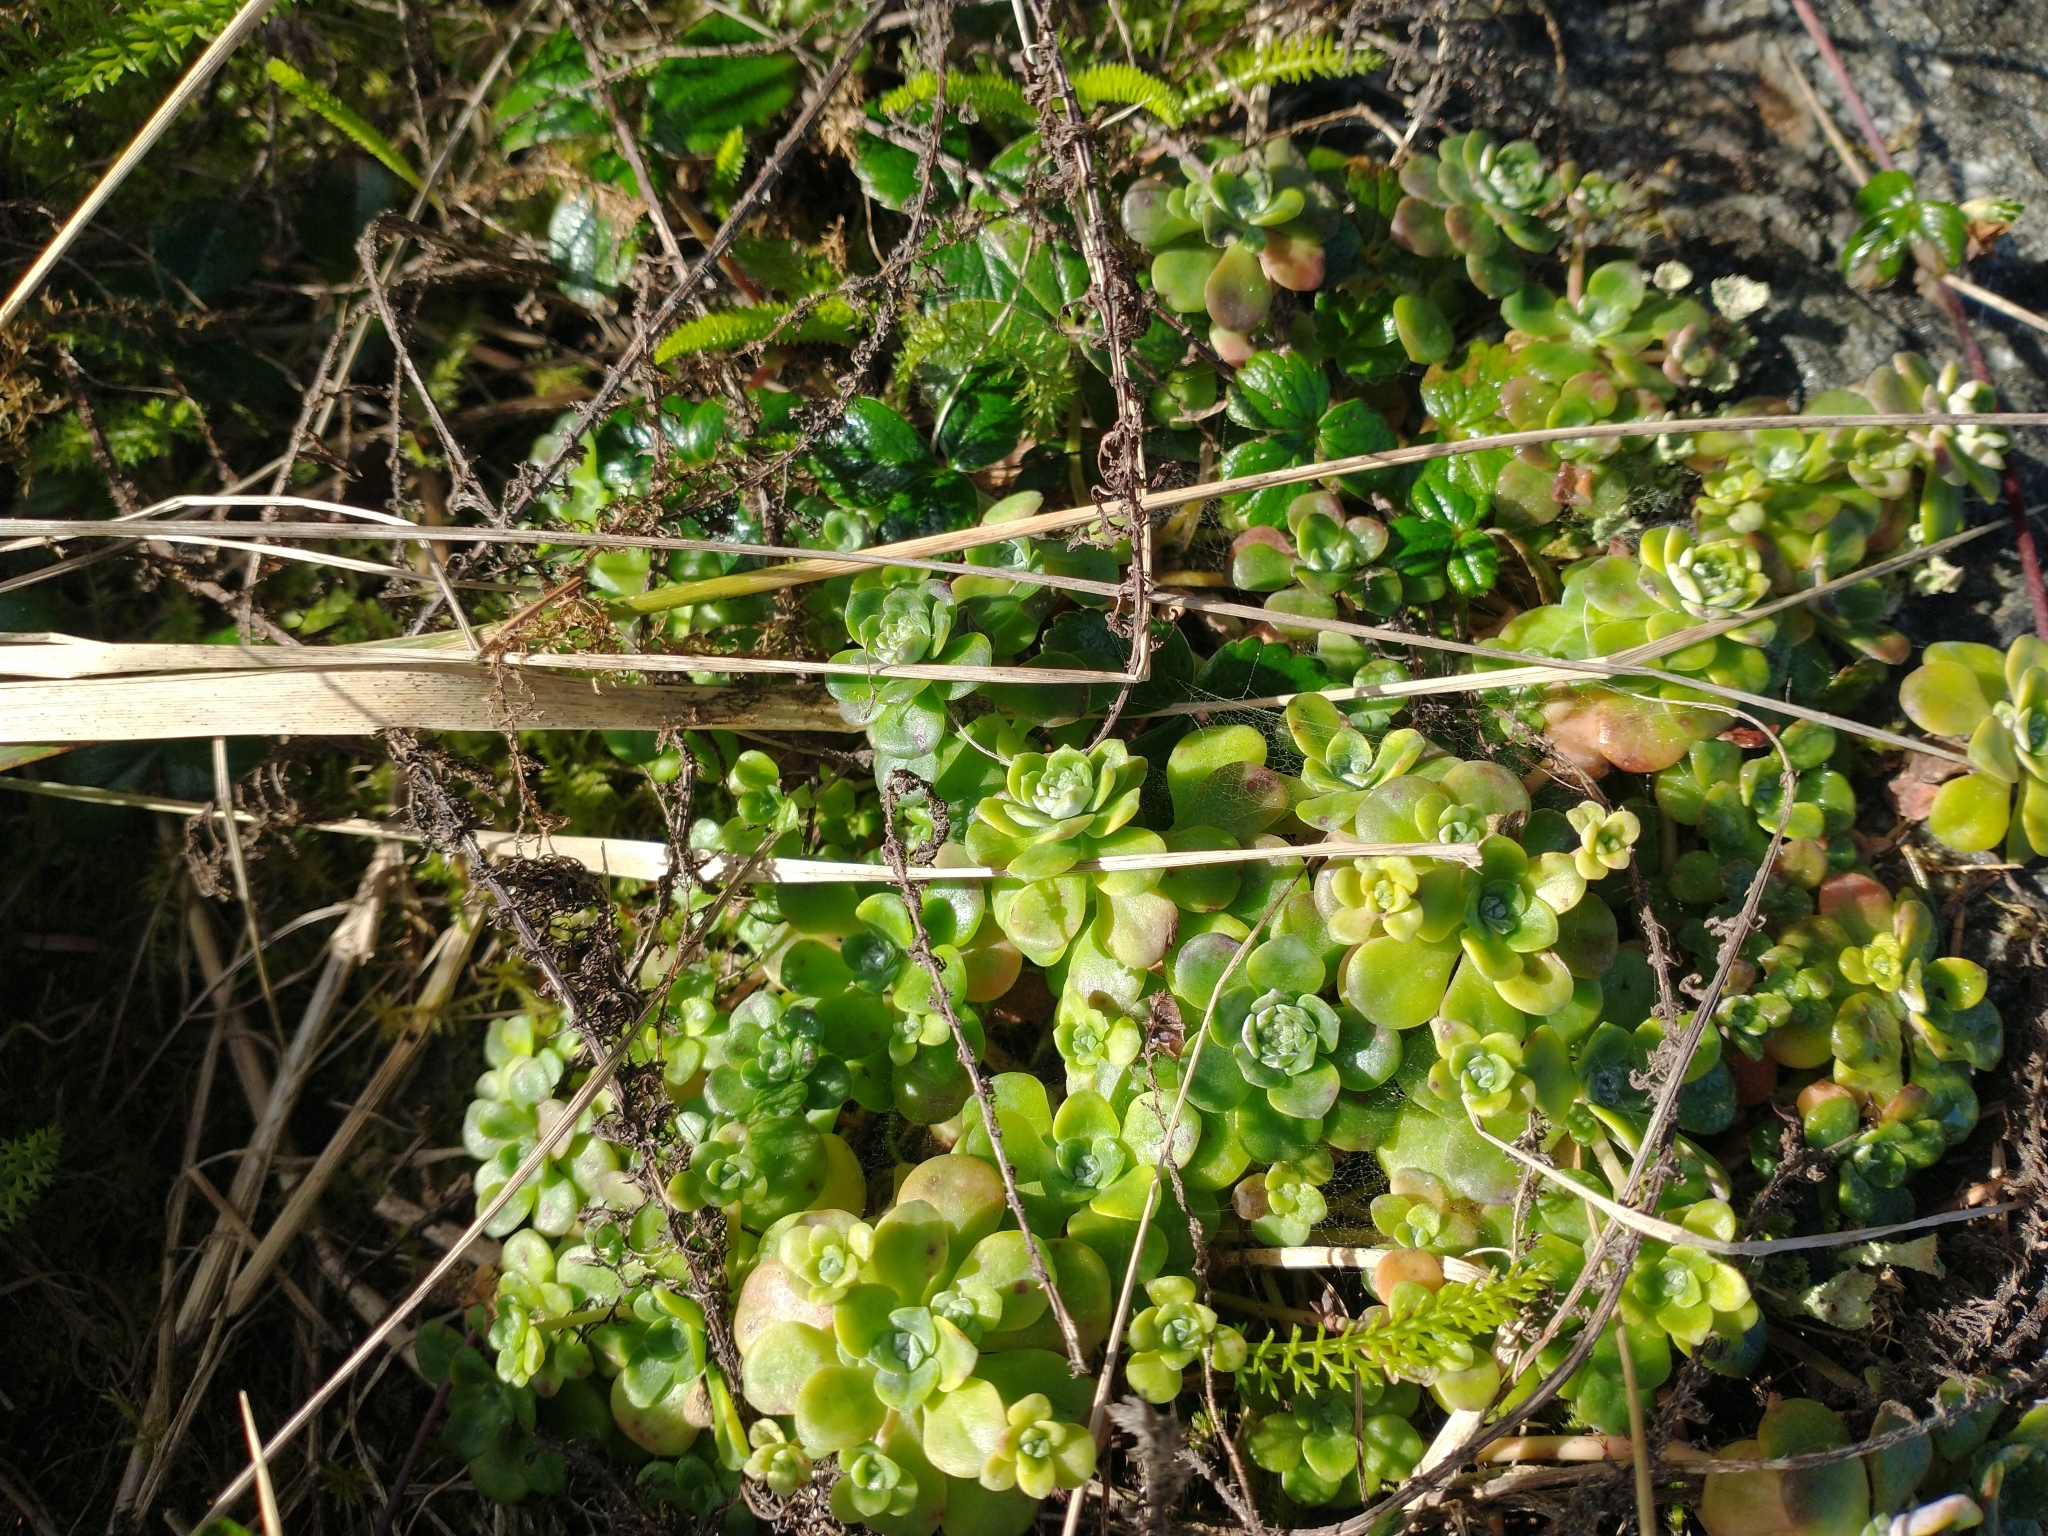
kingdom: Plantae
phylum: Tracheophyta
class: Magnoliopsida
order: Saxifragales
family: Crassulaceae
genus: Sedum
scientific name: Sedum spathulifolium
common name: Colorado stonecrop
